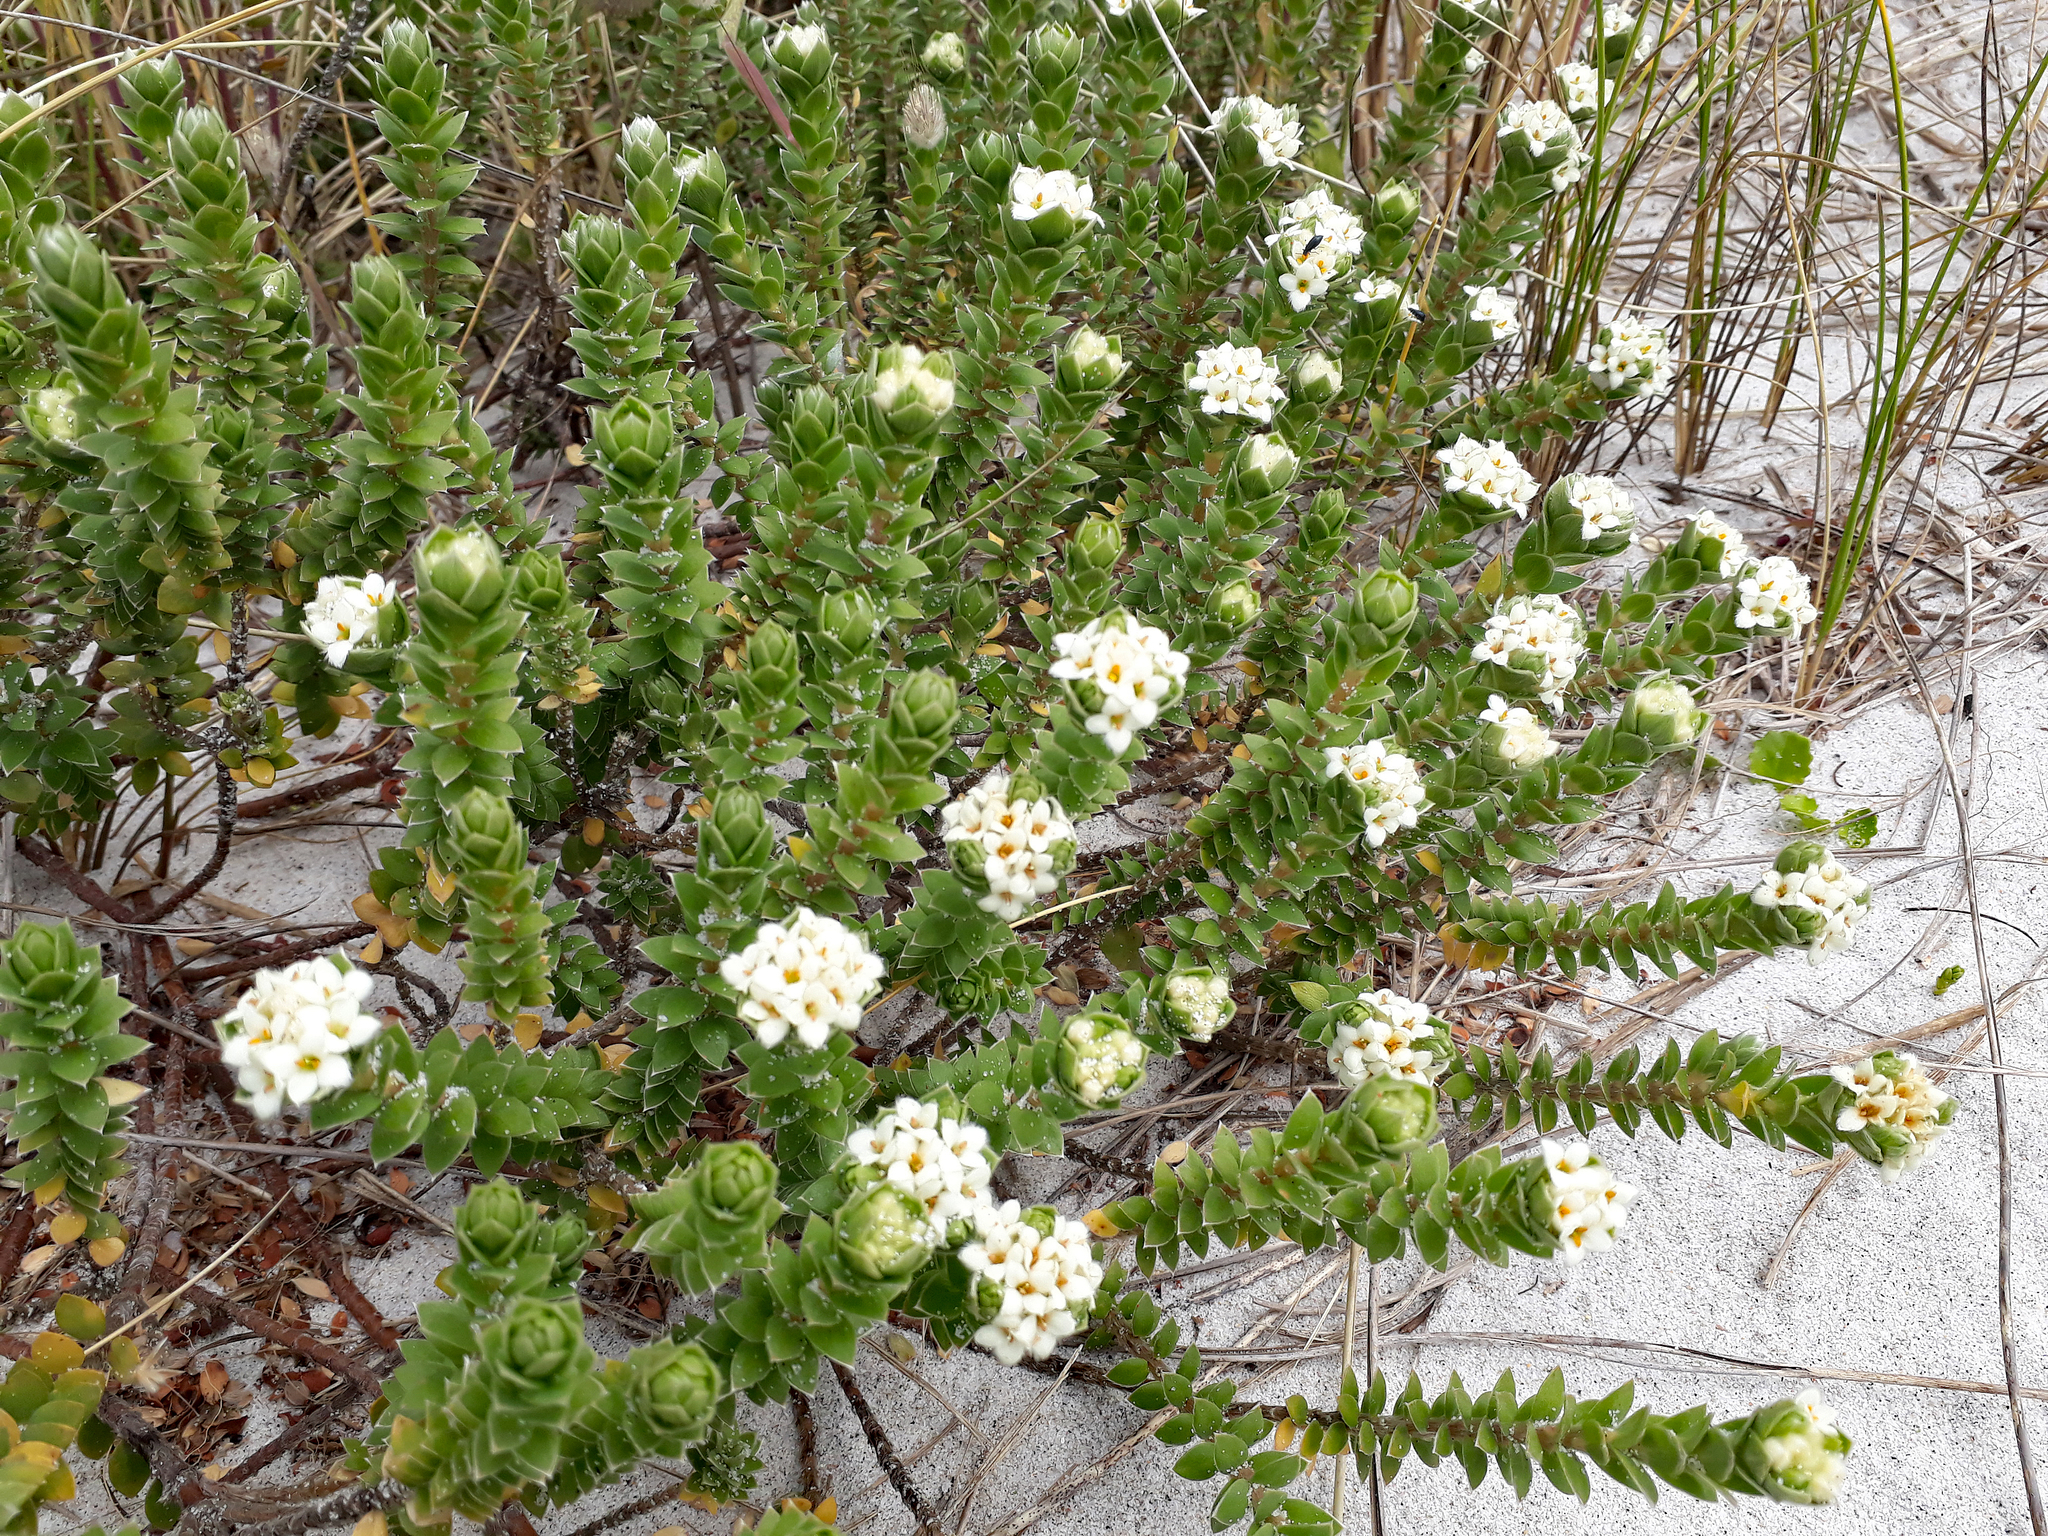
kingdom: Plantae
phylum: Tracheophyta
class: Magnoliopsida
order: Malvales
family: Thymelaeaceae
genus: Pimelea
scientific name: Pimelea villosa
